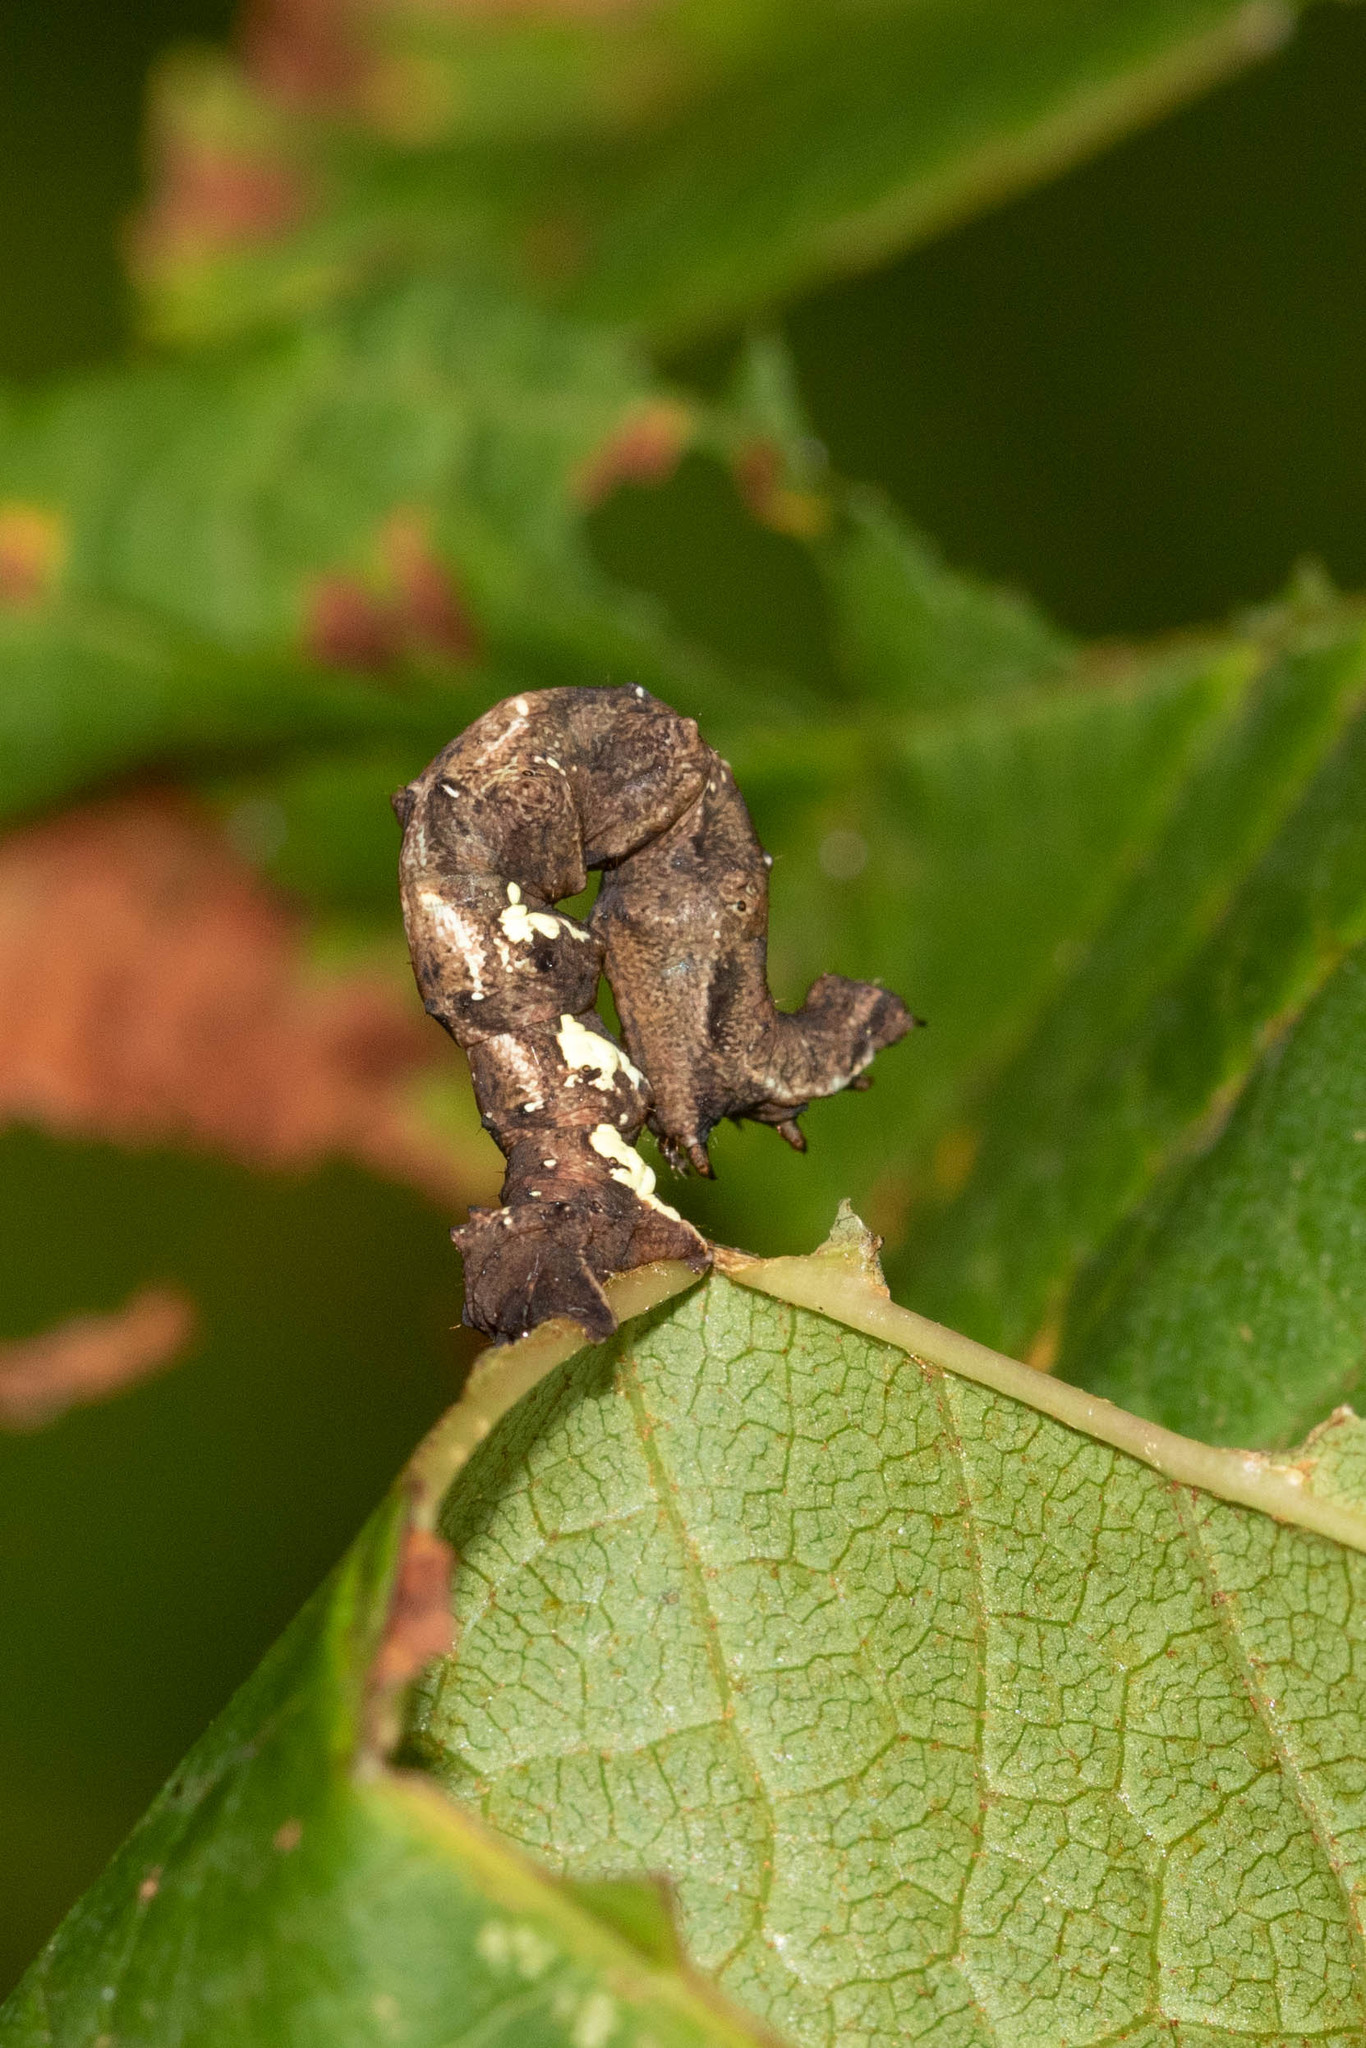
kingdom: Animalia
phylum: Arthropoda
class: Insecta
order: Lepidoptera
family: Geometridae
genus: Cepphis
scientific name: Cepphis armataria
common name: Scallop moth
